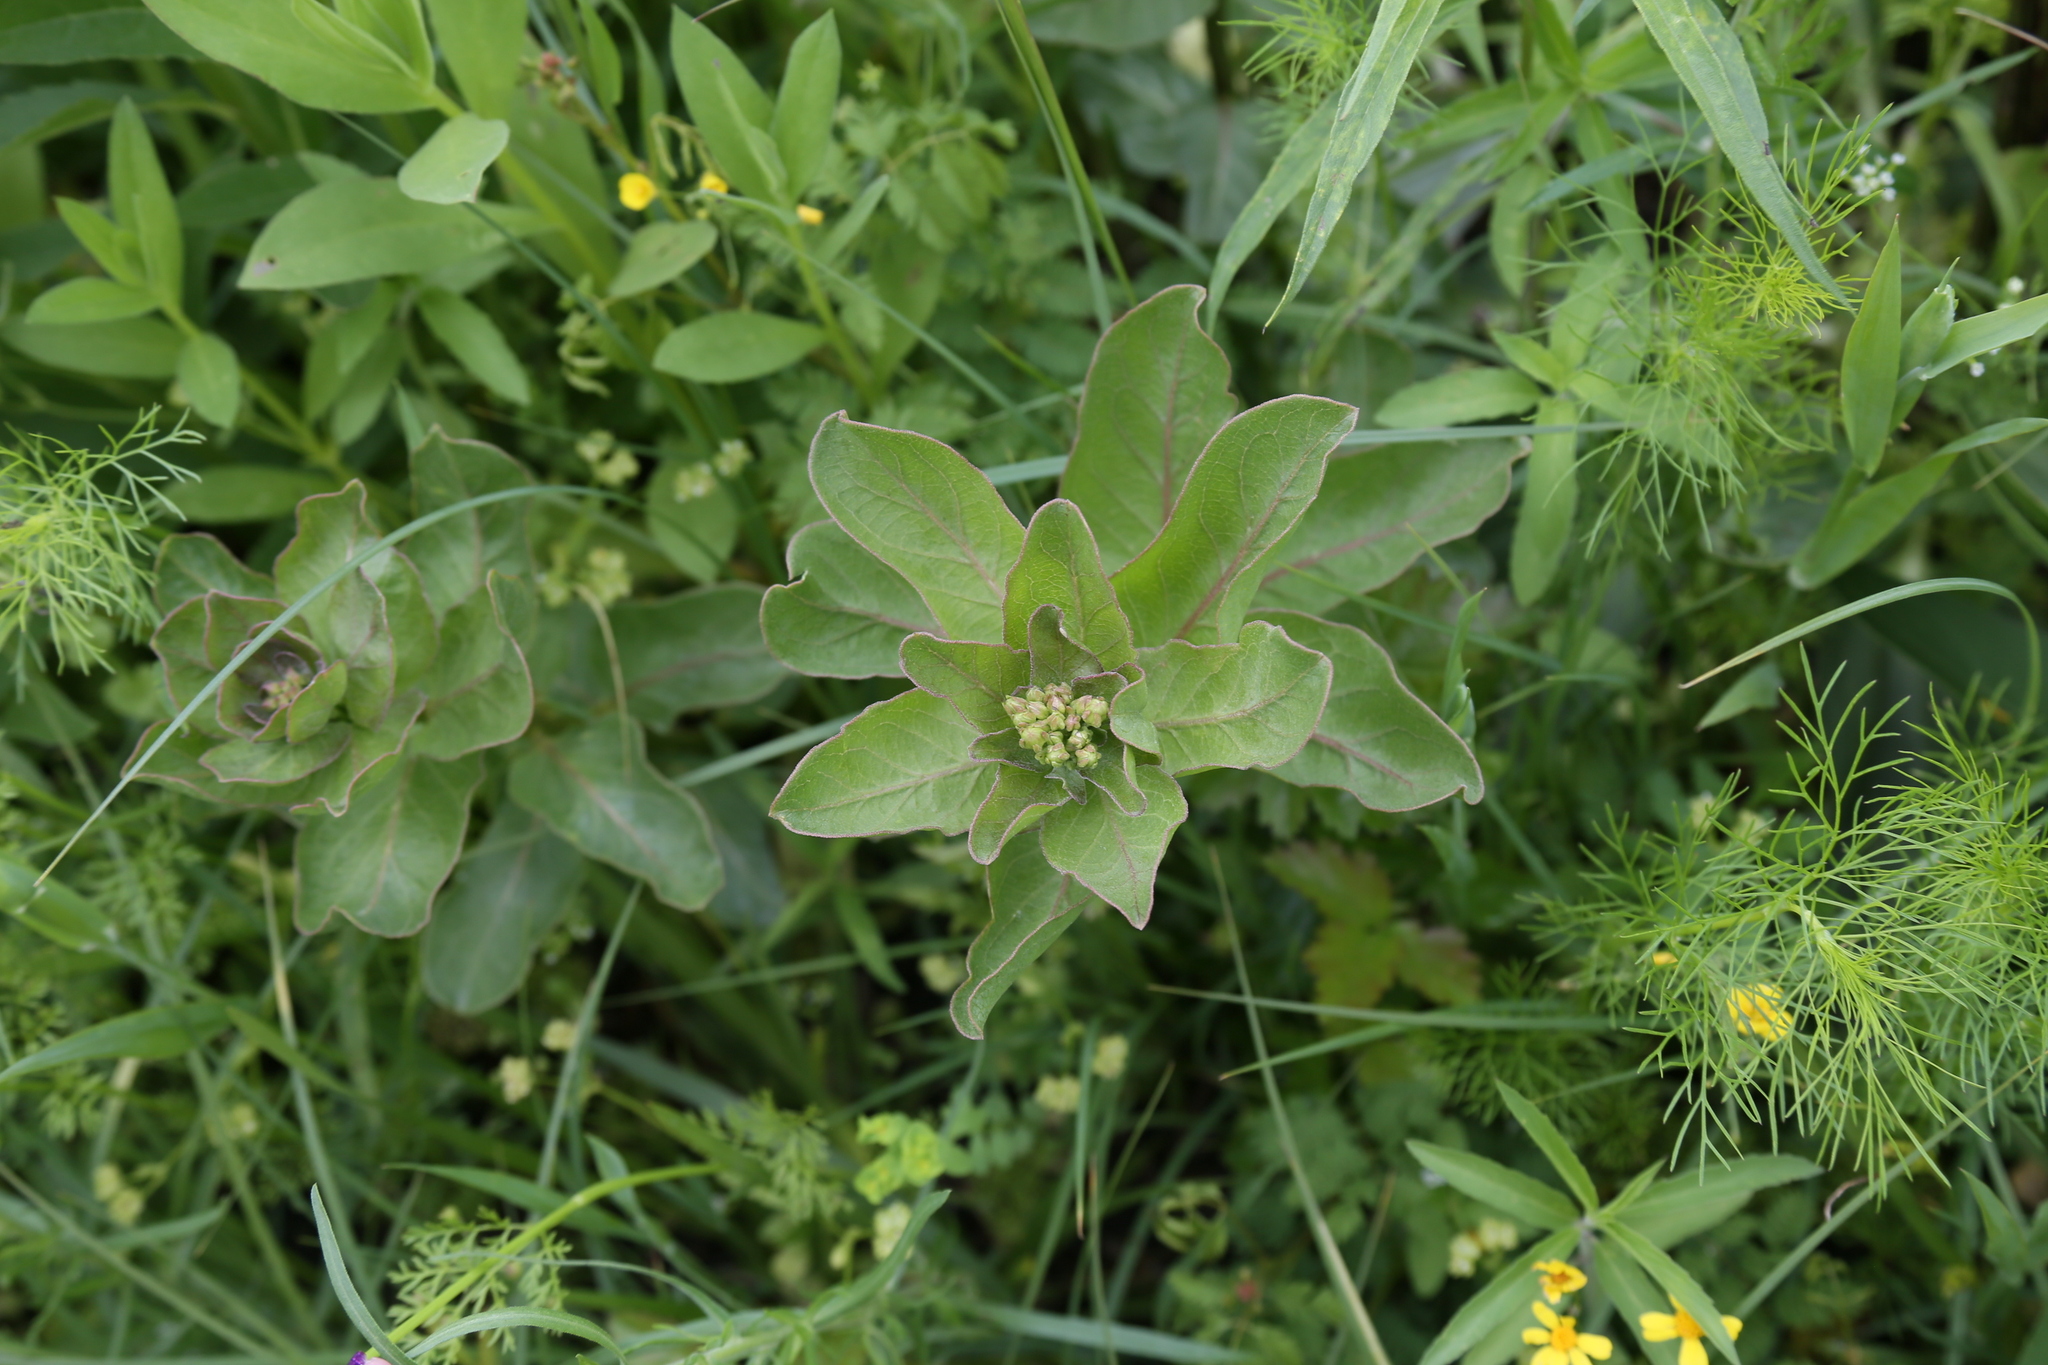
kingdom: Plantae
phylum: Tracheophyta
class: Magnoliopsida
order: Gentianales
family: Apocynaceae
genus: Asclepias
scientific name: Asclepias viridis
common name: Antelope-horns
